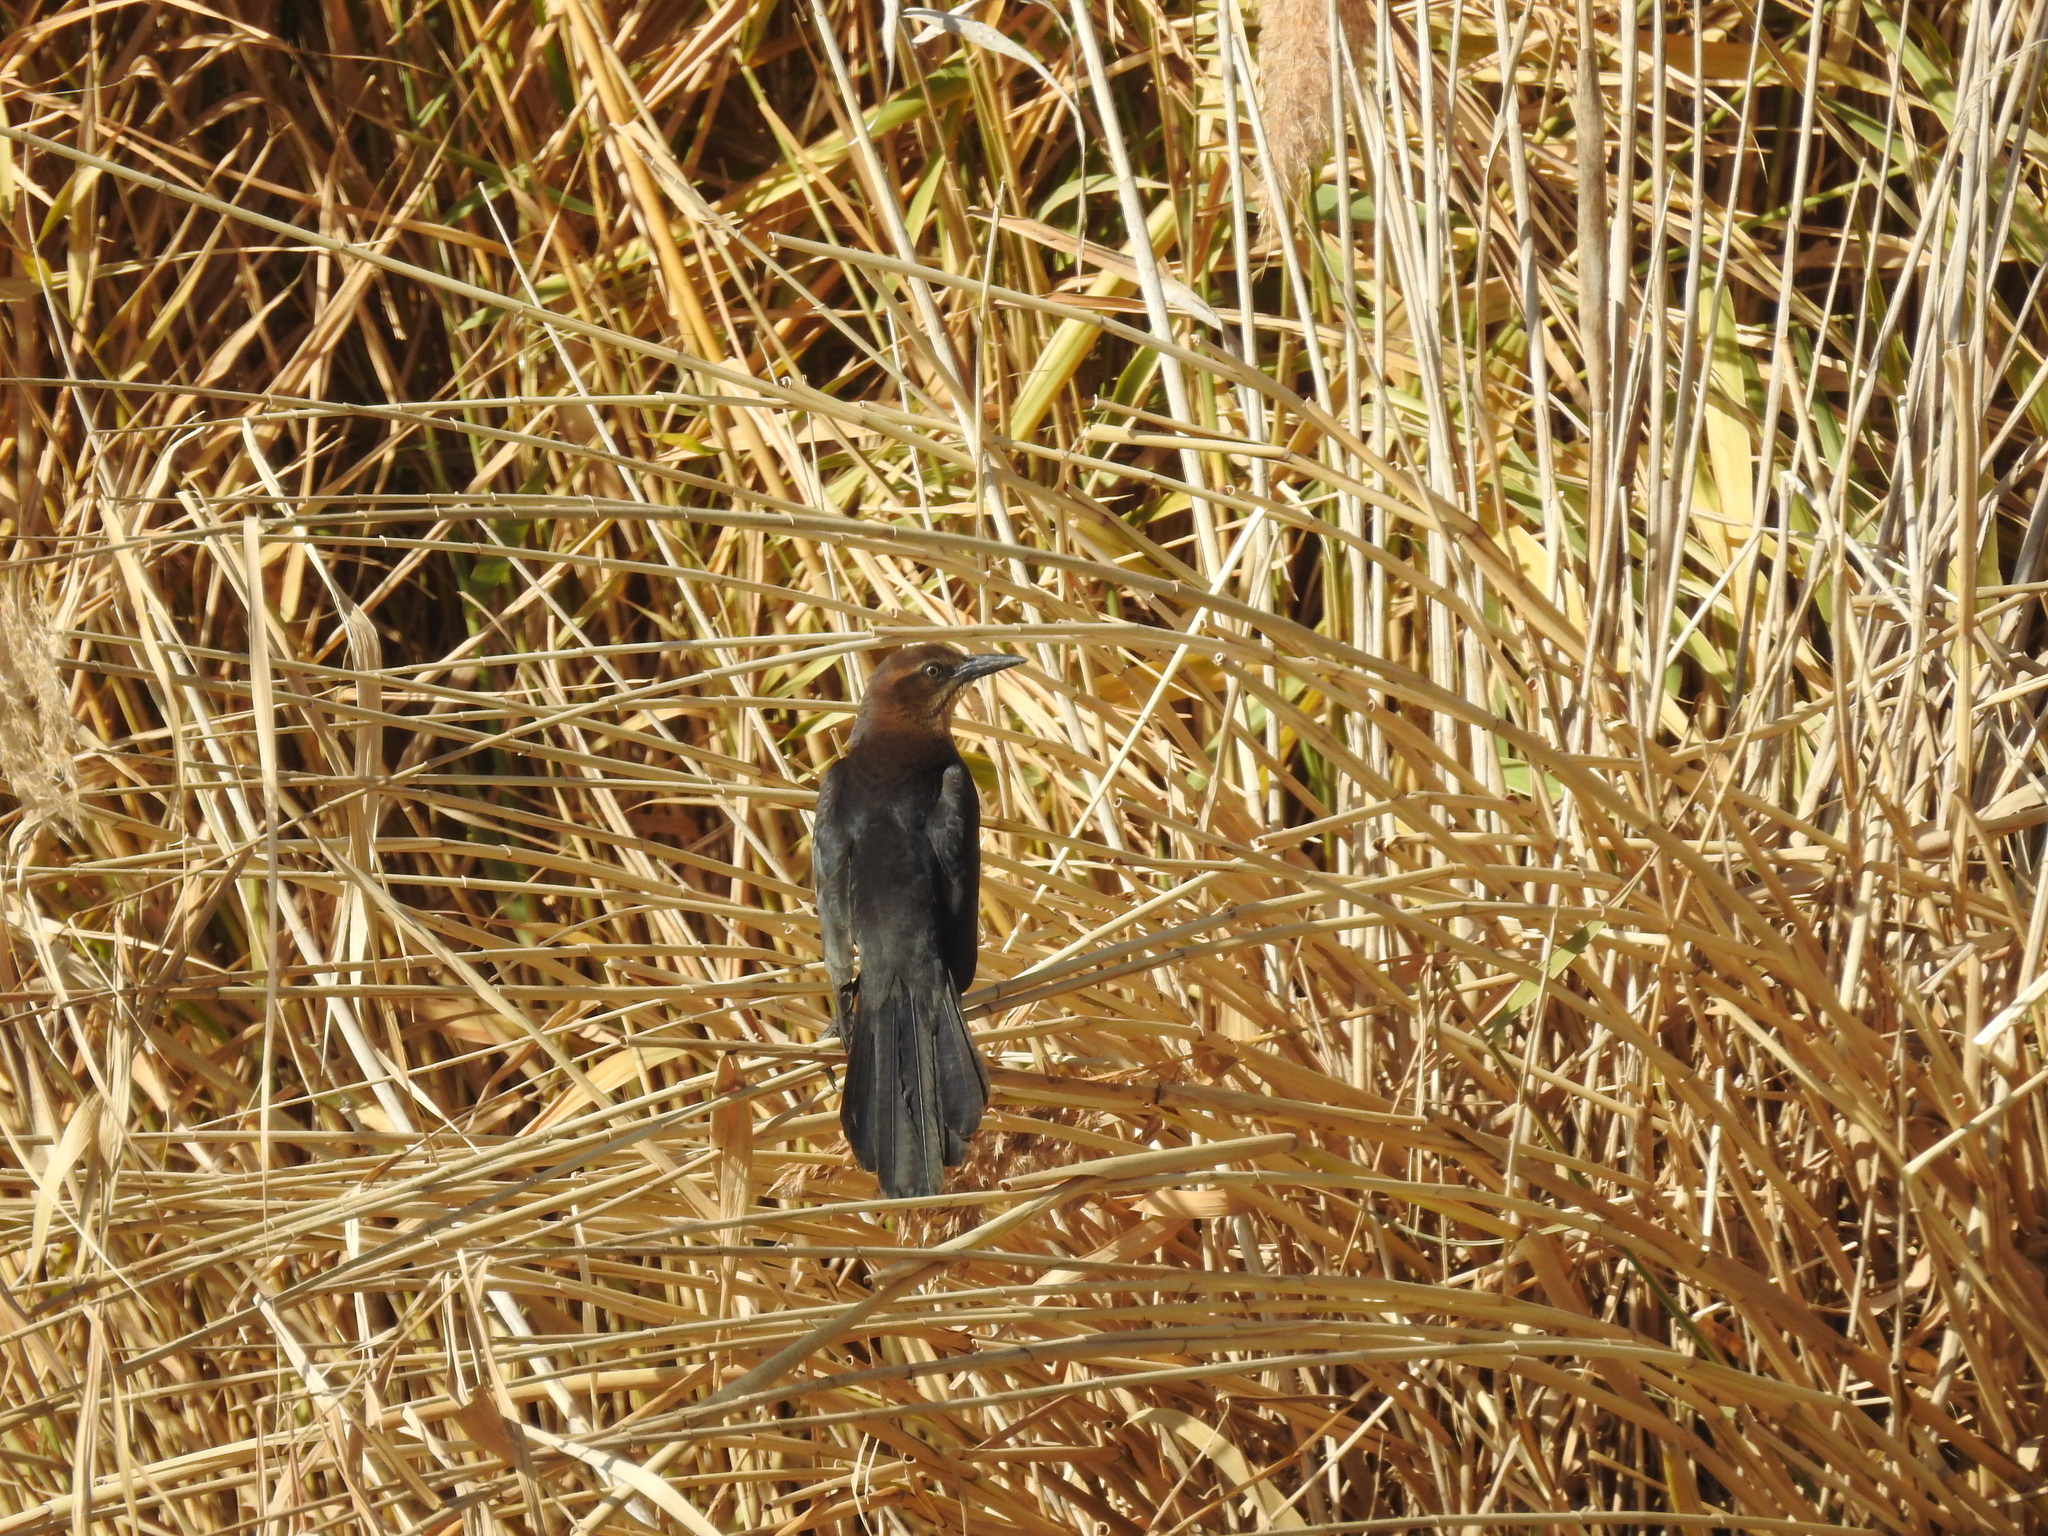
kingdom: Animalia
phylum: Chordata
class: Aves
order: Passeriformes
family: Icteridae
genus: Quiscalus
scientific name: Quiscalus mexicanus
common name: Great-tailed grackle
